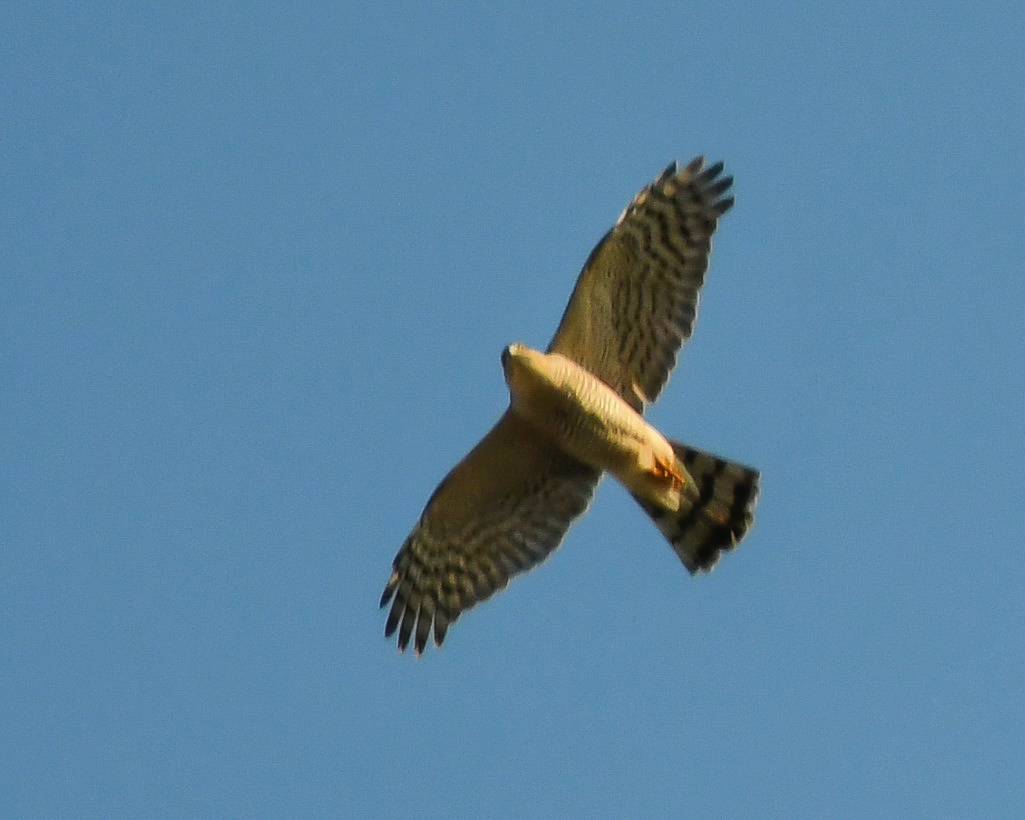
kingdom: Animalia
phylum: Chordata
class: Aves
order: Accipitriformes
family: Accipitridae
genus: Accipiter
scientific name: Accipiter nisus
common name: Eurasian sparrowhawk
